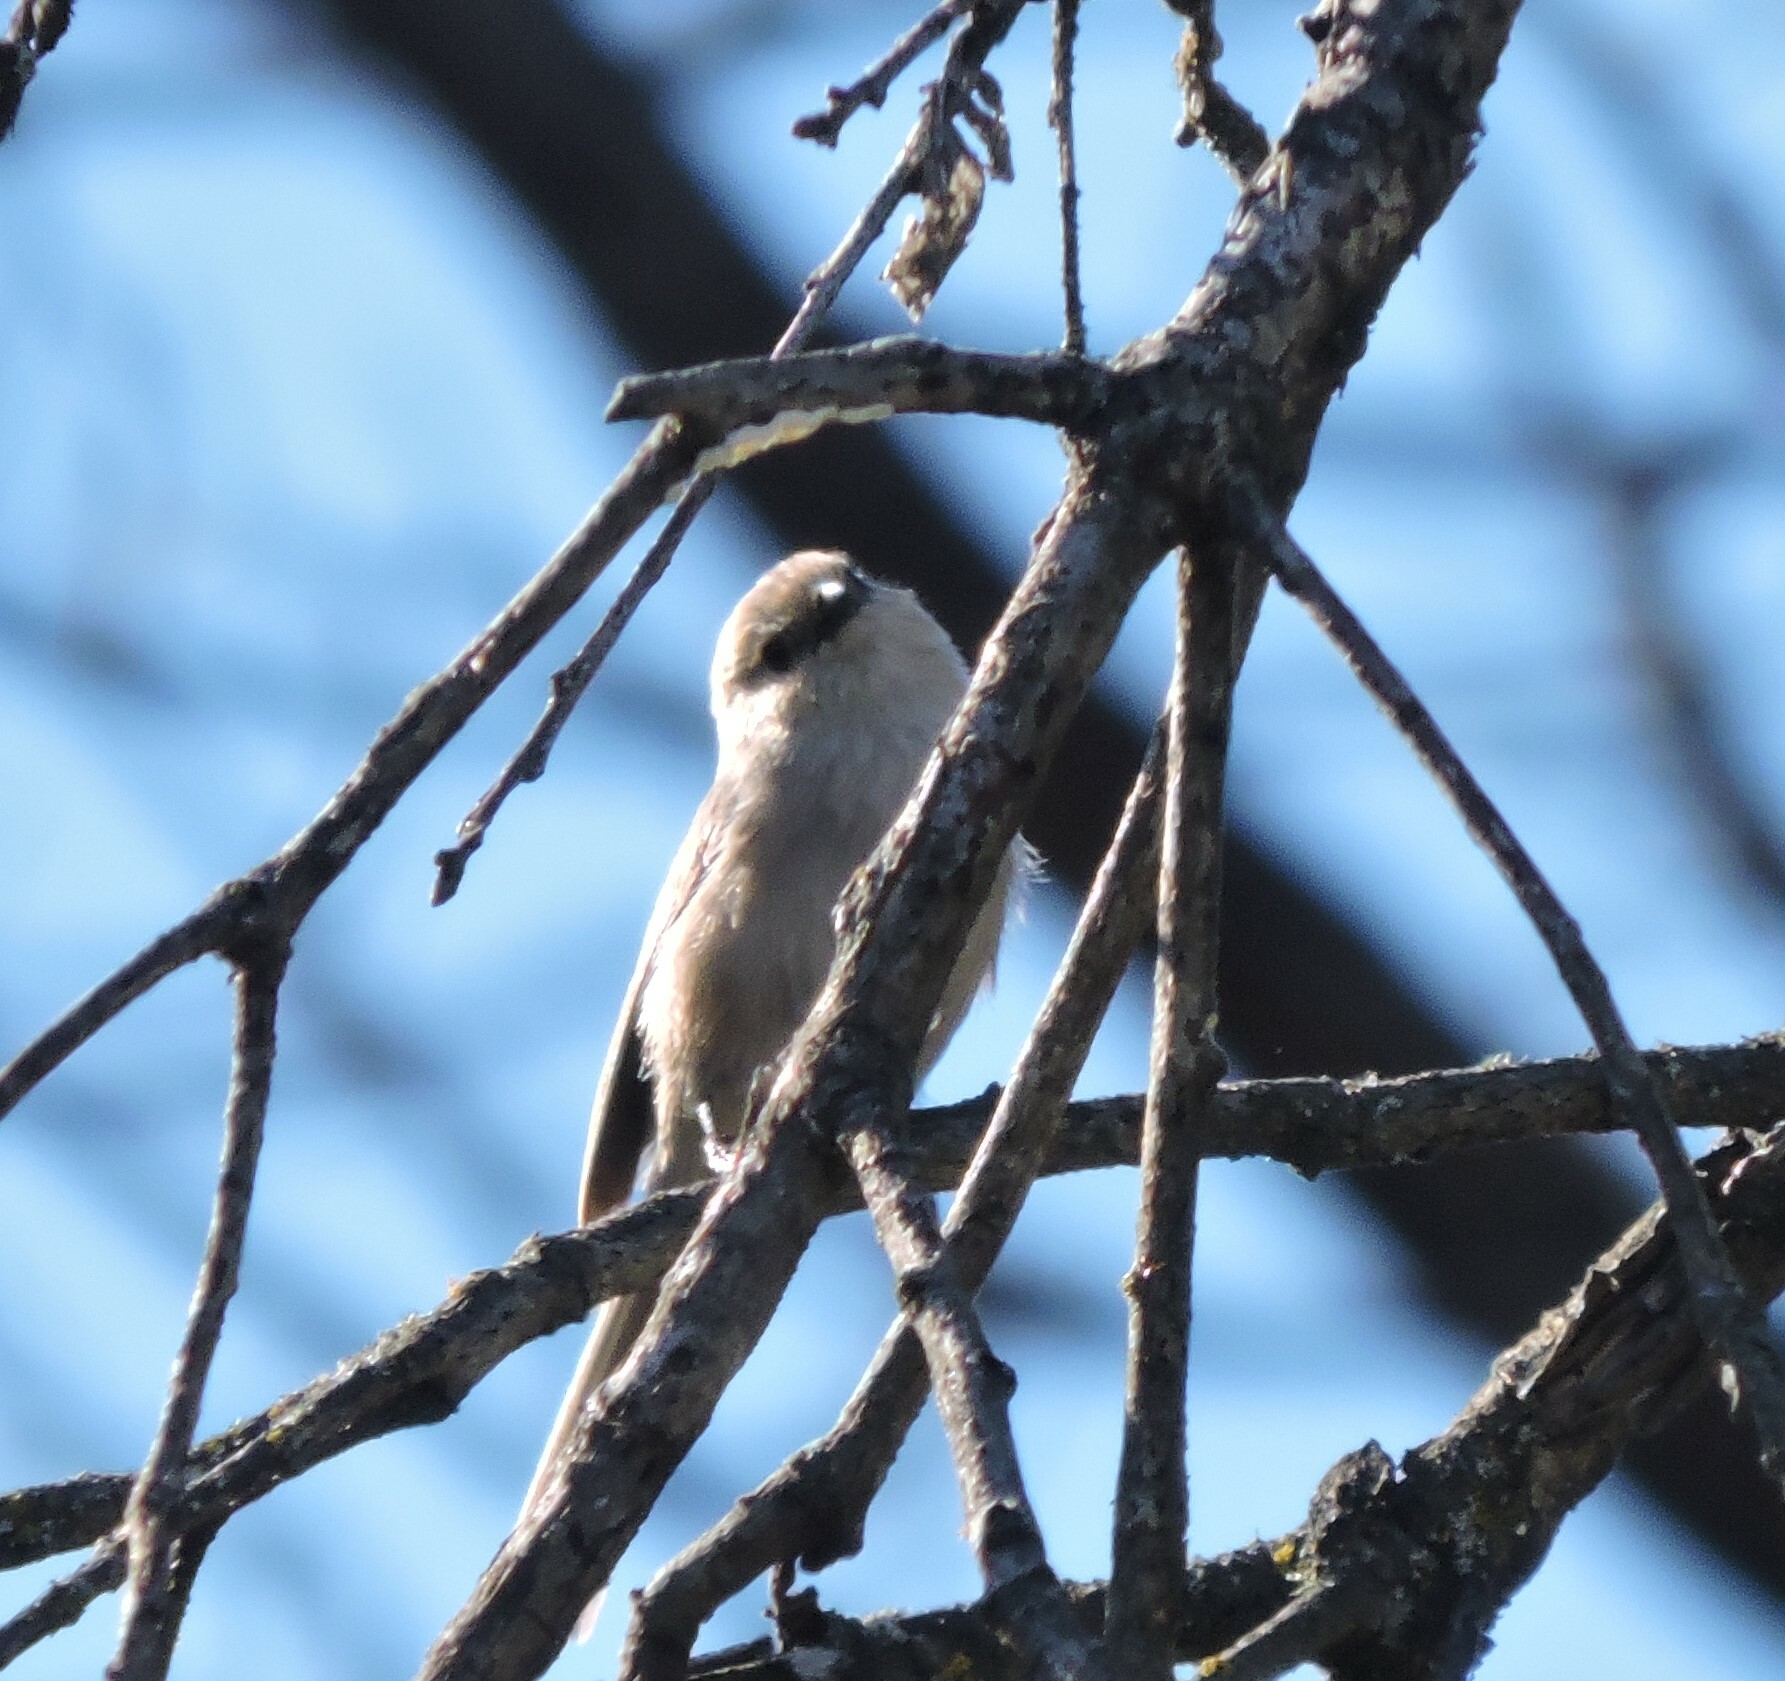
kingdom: Animalia
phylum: Chordata
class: Aves
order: Passeriformes
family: Aegithalidae
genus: Psaltriparus
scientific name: Psaltriparus minimus
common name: American bushtit
